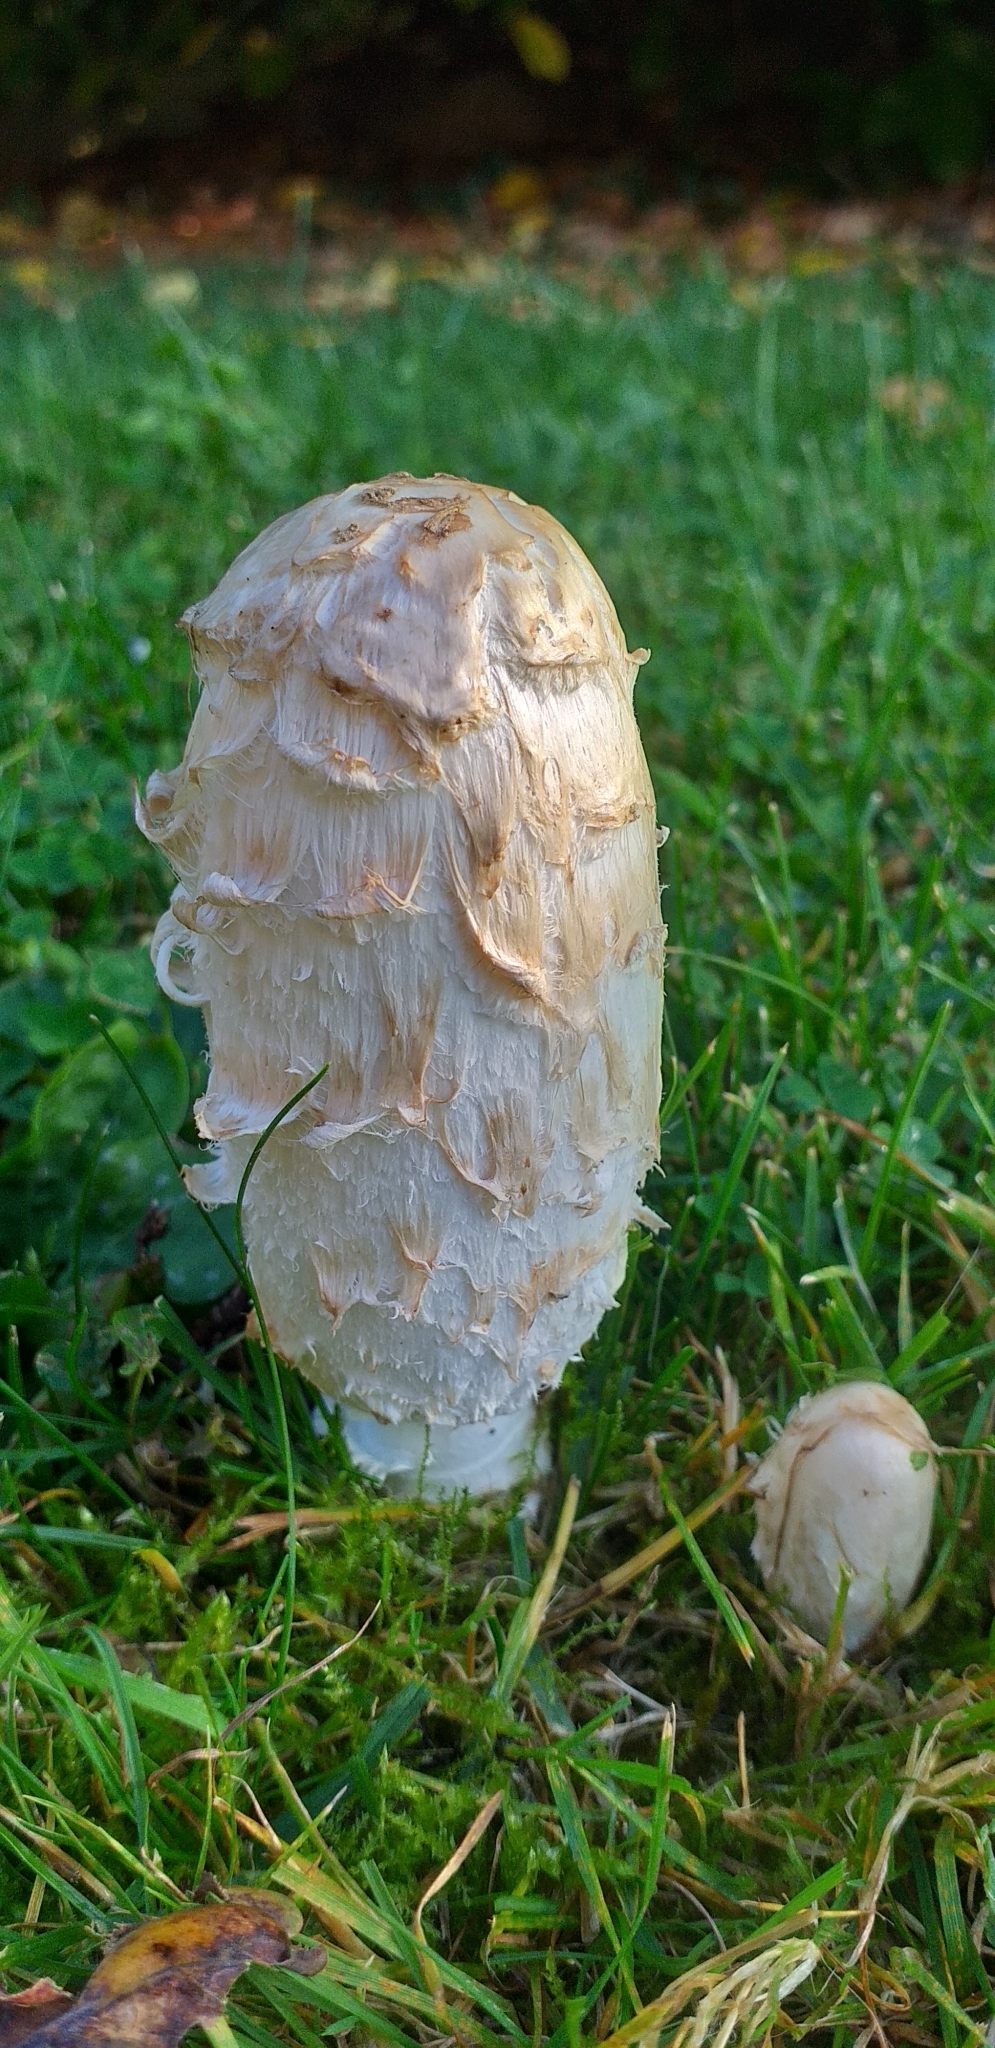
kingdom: Fungi
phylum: Basidiomycota
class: Agaricomycetes
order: Agaricales
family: Agaricaceae
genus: Coprinus
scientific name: Coprinus comatus
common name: Lawyer's wig
